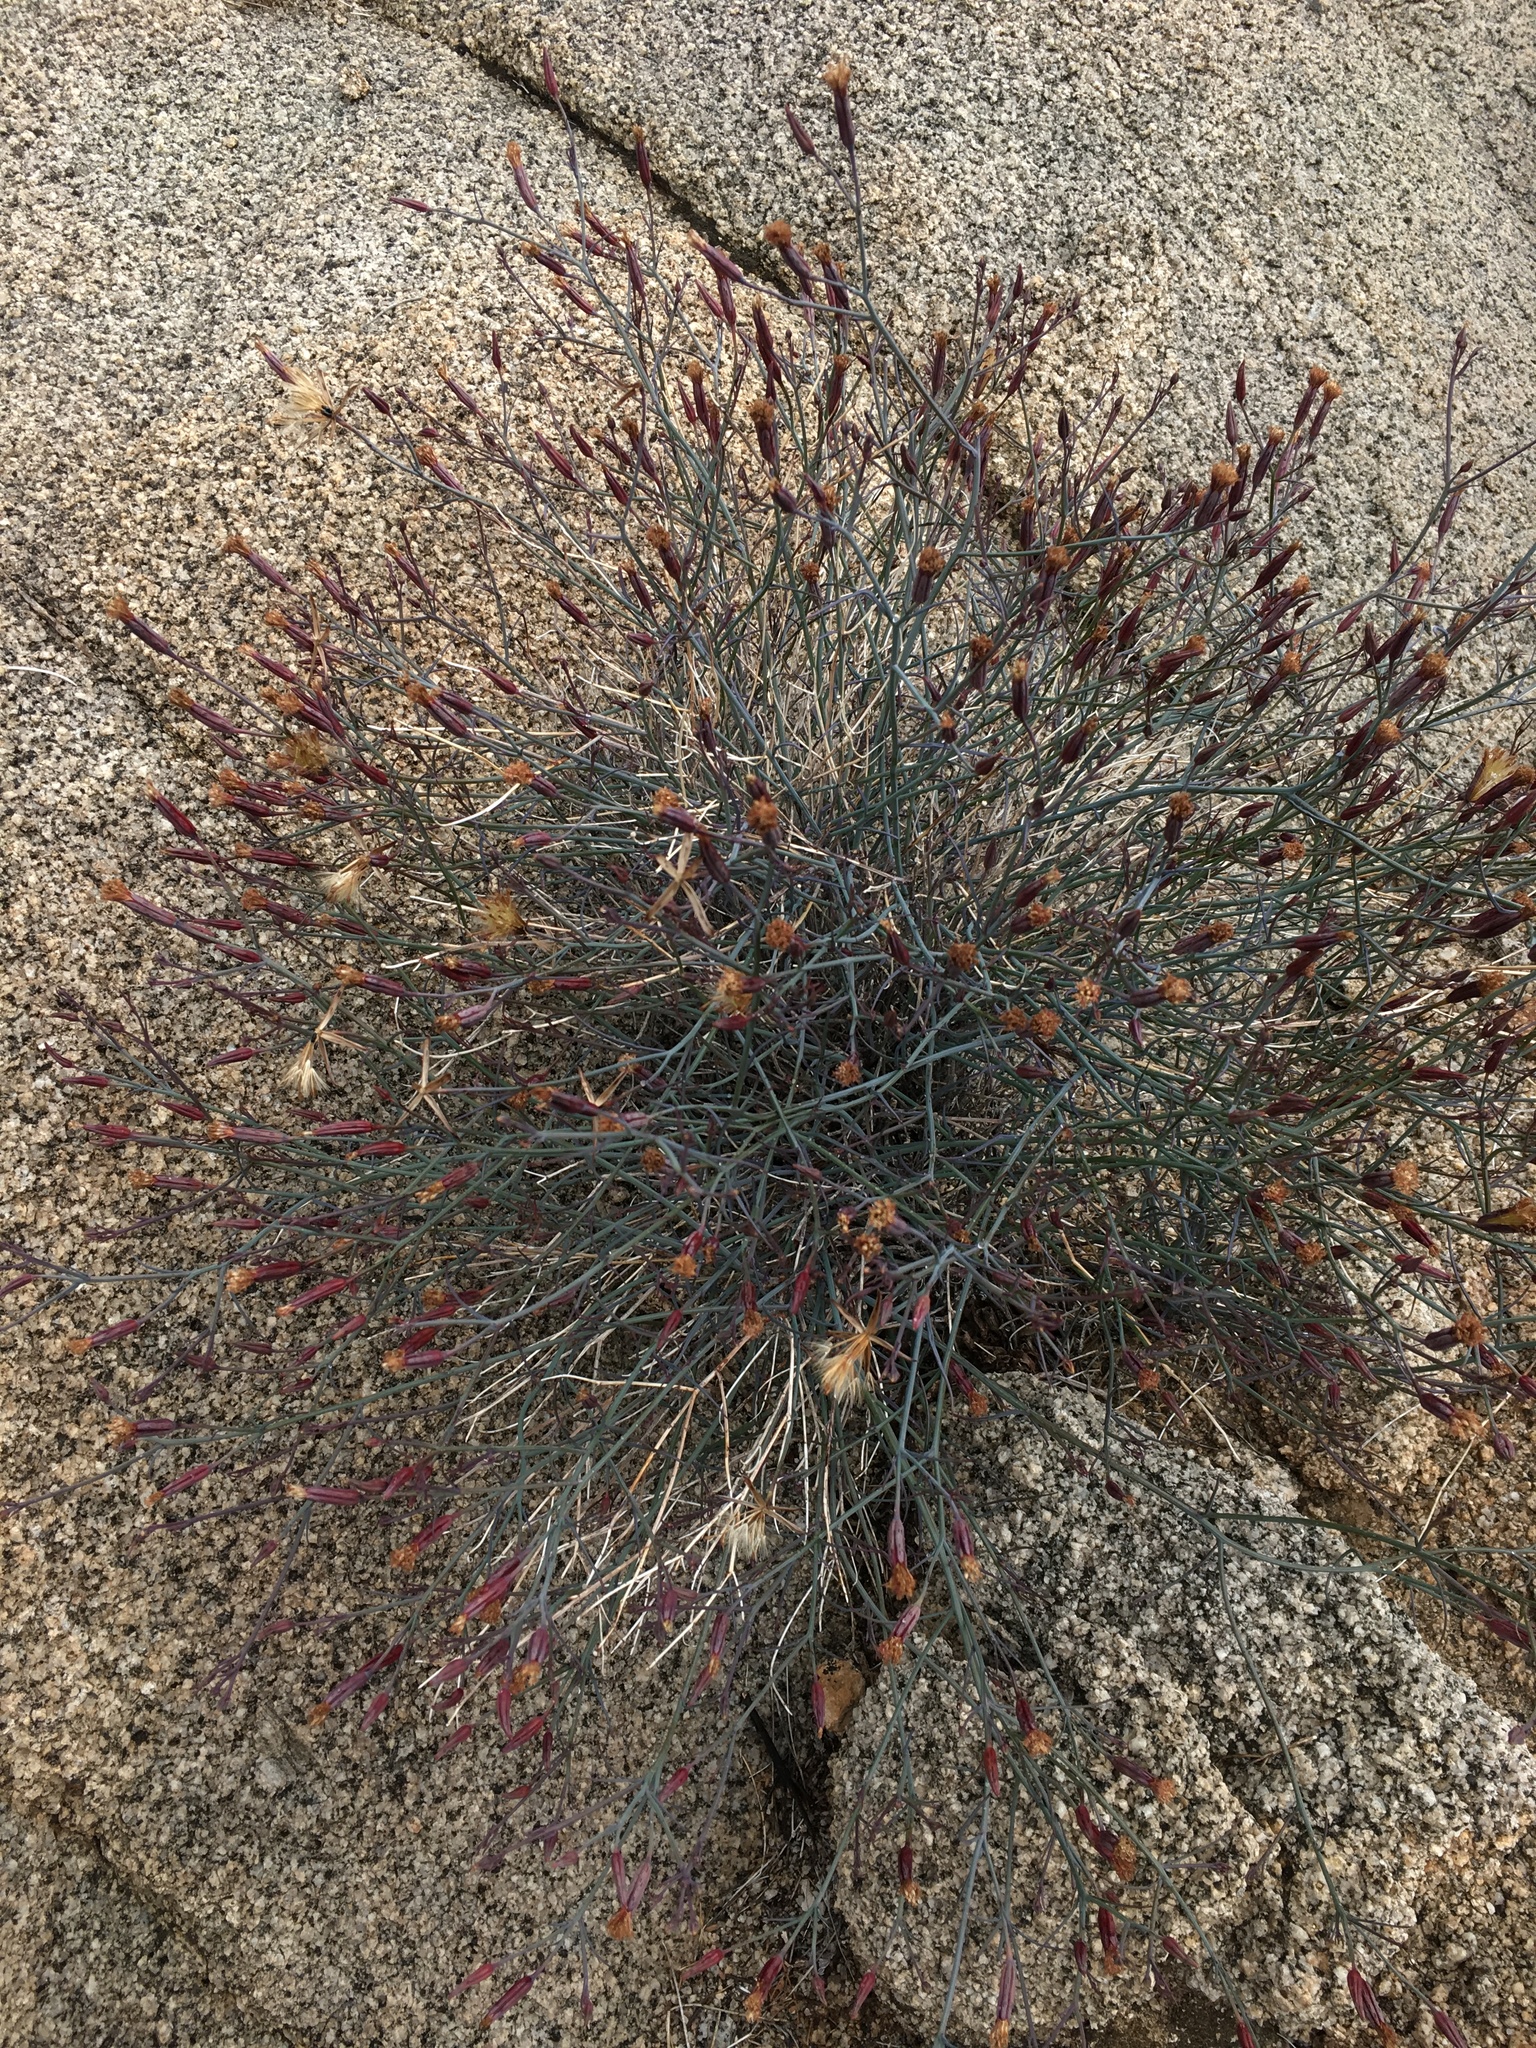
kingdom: Plantae
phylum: Tracheophyta
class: Magnoliopsida
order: Asterales
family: Asteraceae
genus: Porophyllum
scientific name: Porophyllum gracile
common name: Odora
